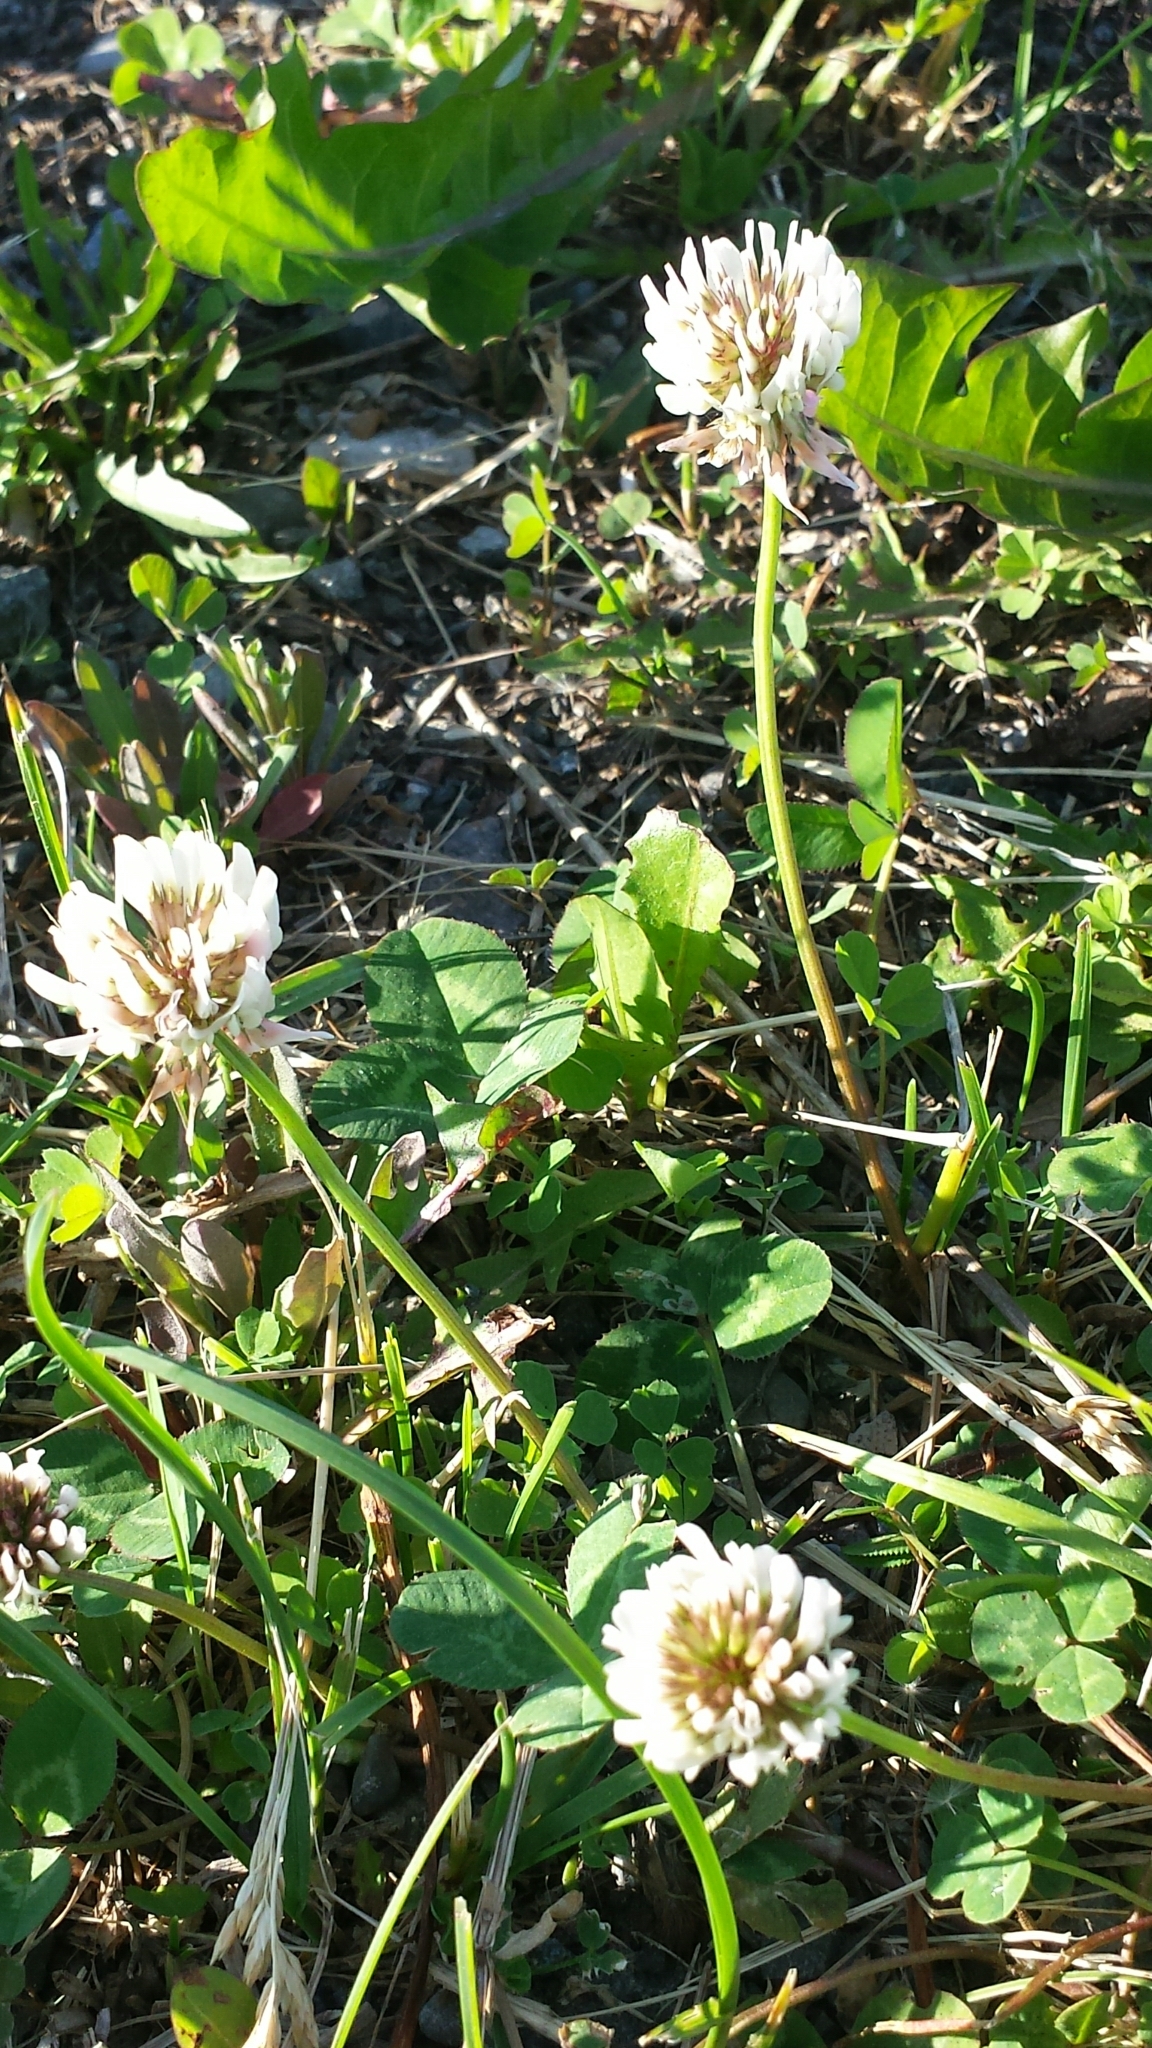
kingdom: Plantae
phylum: Tracheophyta
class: Magnoliopsida
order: Fabales
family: Fabaceae
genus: Trifolium
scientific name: Trifolium repens
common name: White clover
